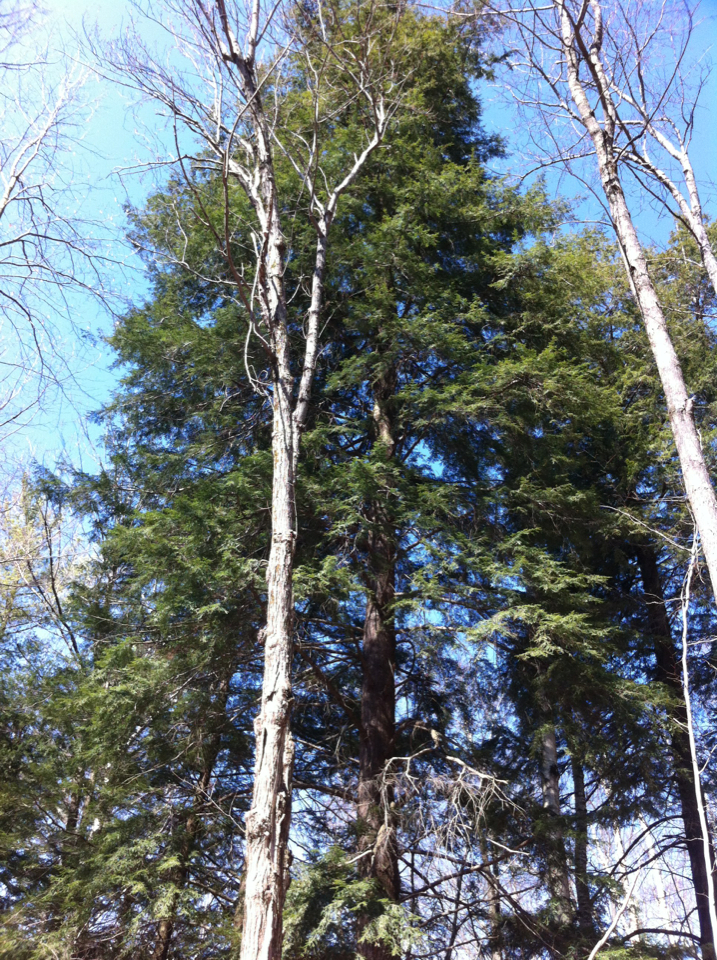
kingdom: Plantae
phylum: Tracheophyta
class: Pinopsida
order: Pinales
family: Pinaceae
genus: Tsuga
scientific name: Tsuga canadensis
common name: Eastern hemlock
